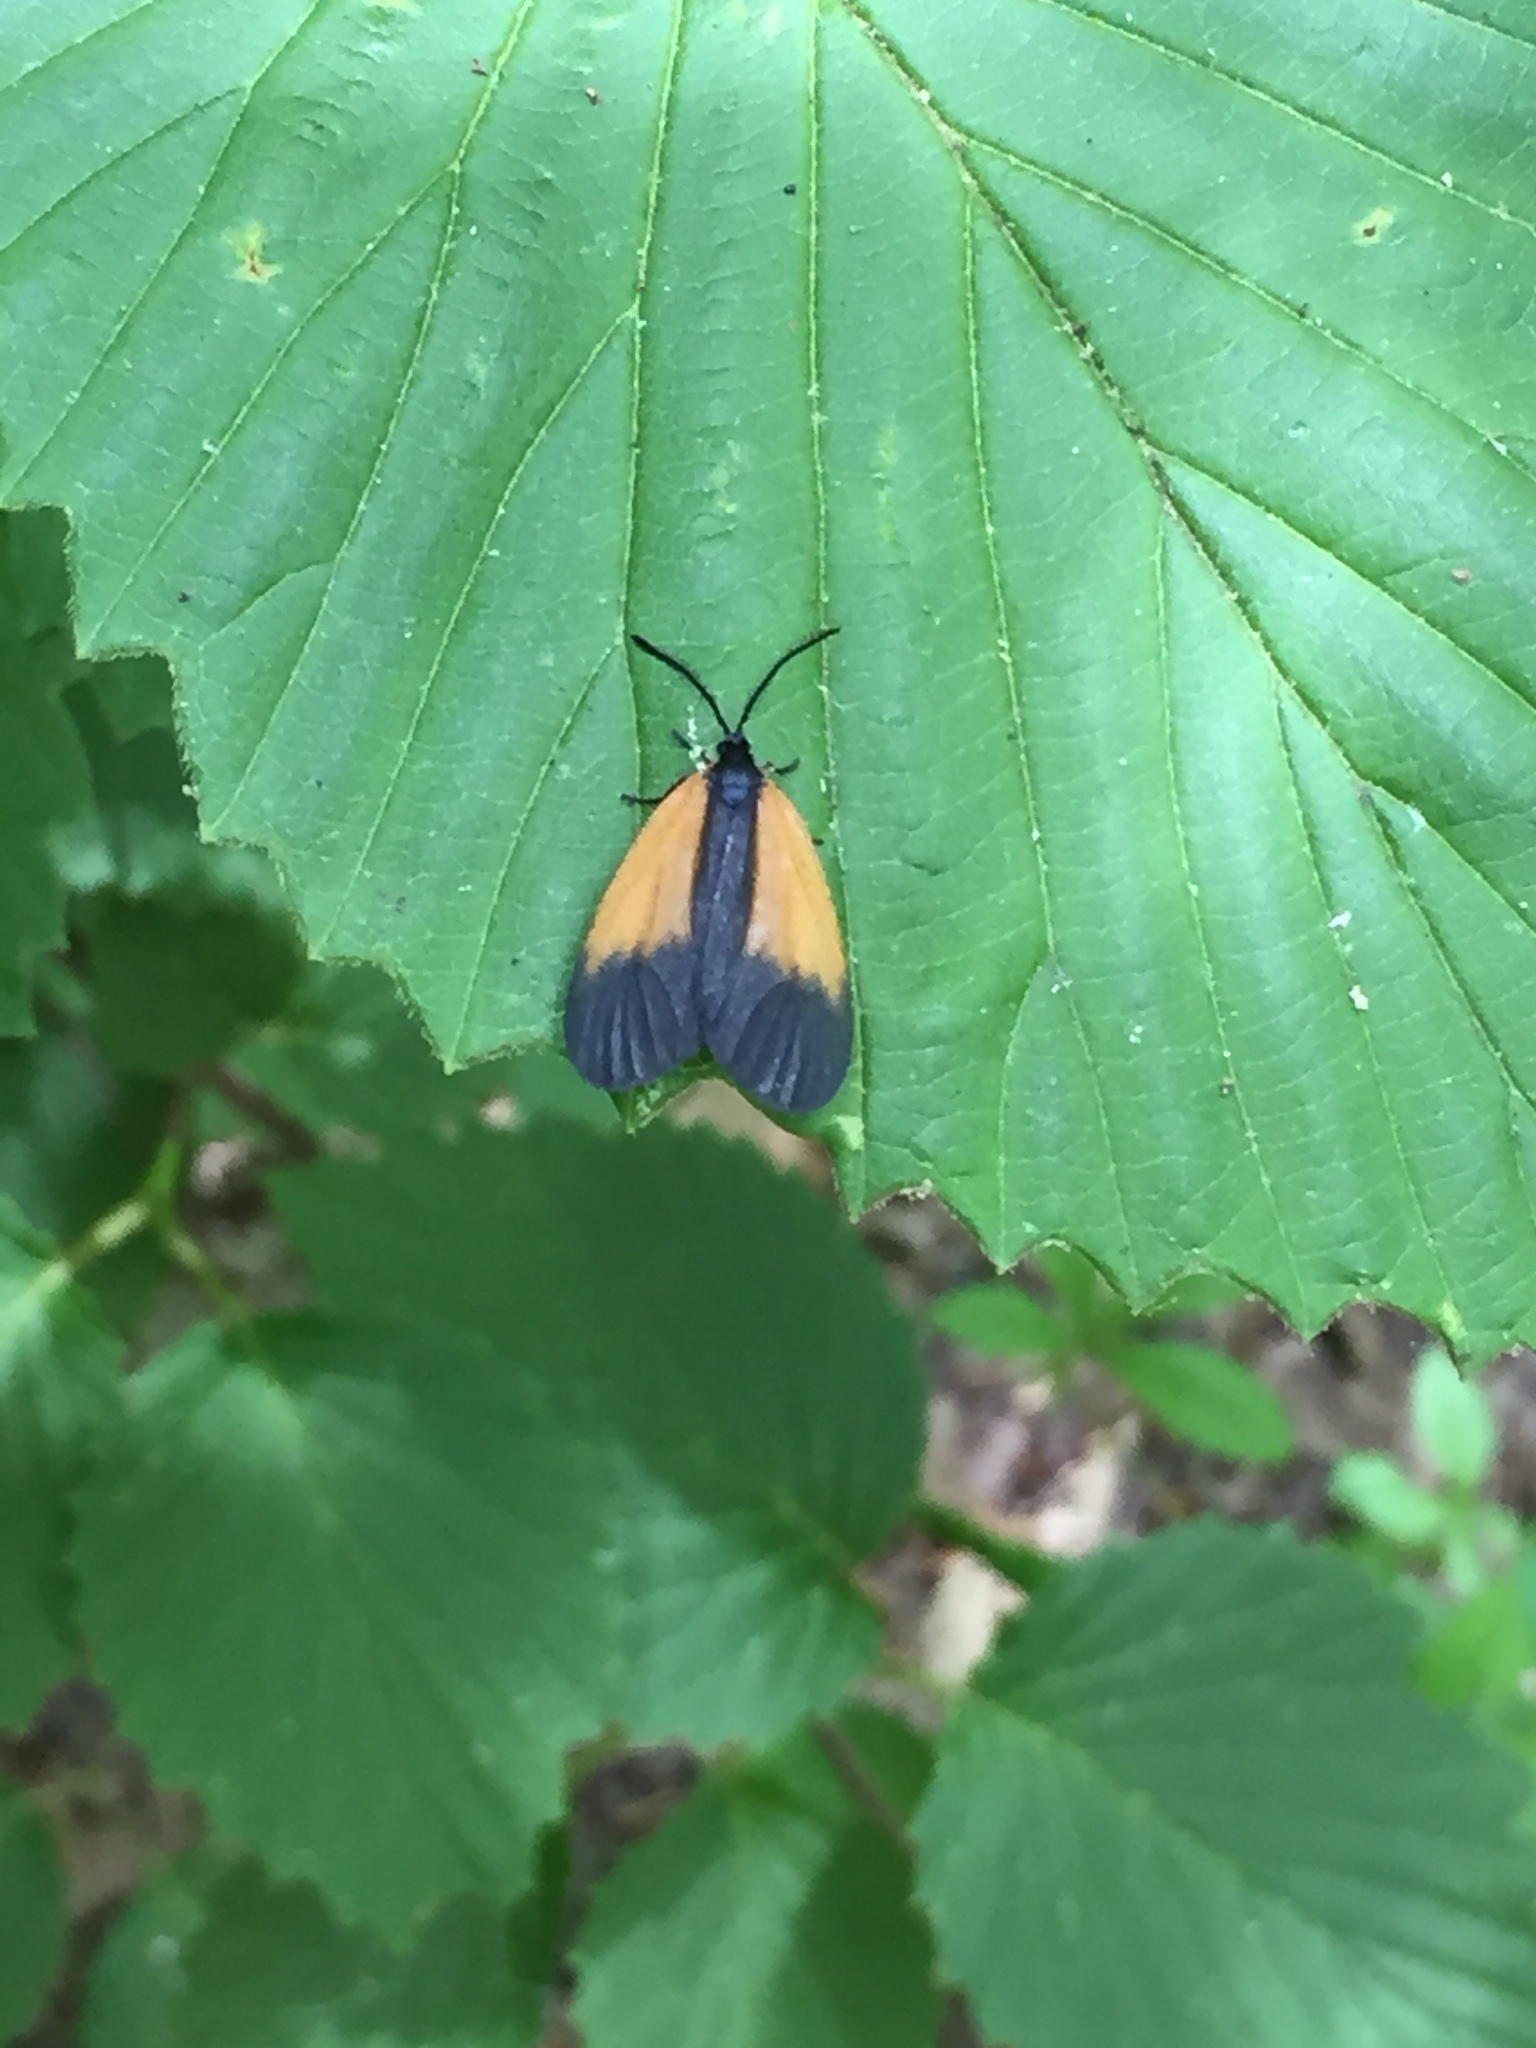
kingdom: Animalia
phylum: Arthropoda
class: Insecta
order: Lepidoptera
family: Zygaenidae
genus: Malthaca
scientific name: Malthaca dimidiata
